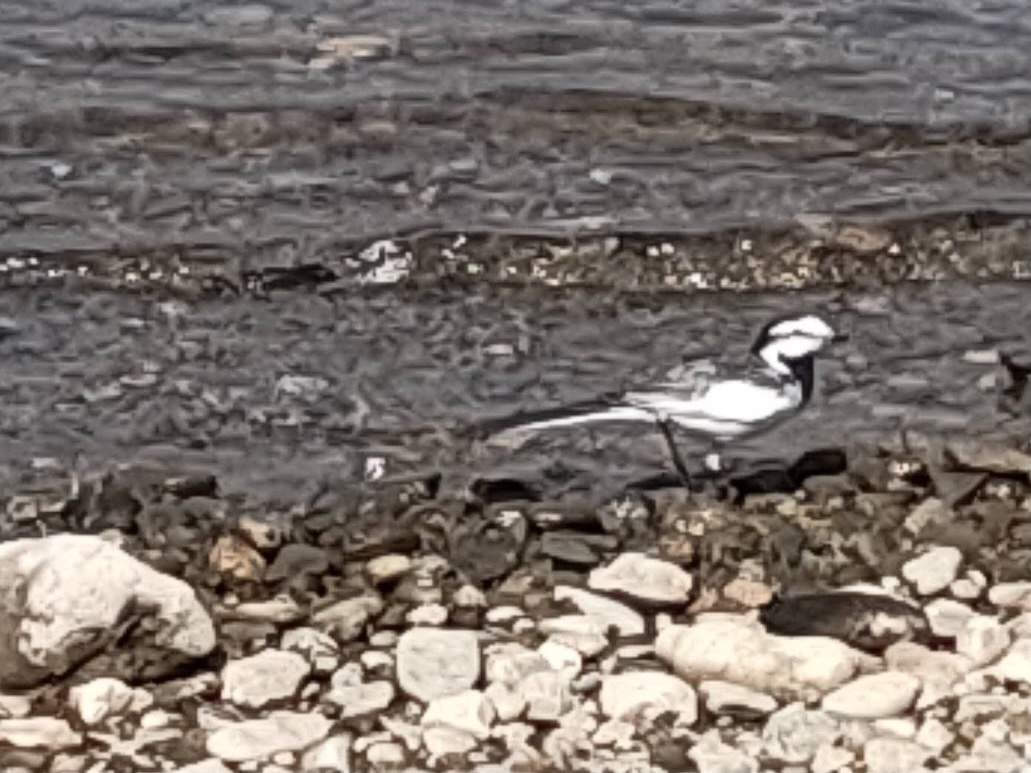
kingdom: Animalia
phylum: Chordata
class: Aves
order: Passeriformes
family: Motacillidae
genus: Motacilla
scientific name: Motacilla alba
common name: White wagtail
